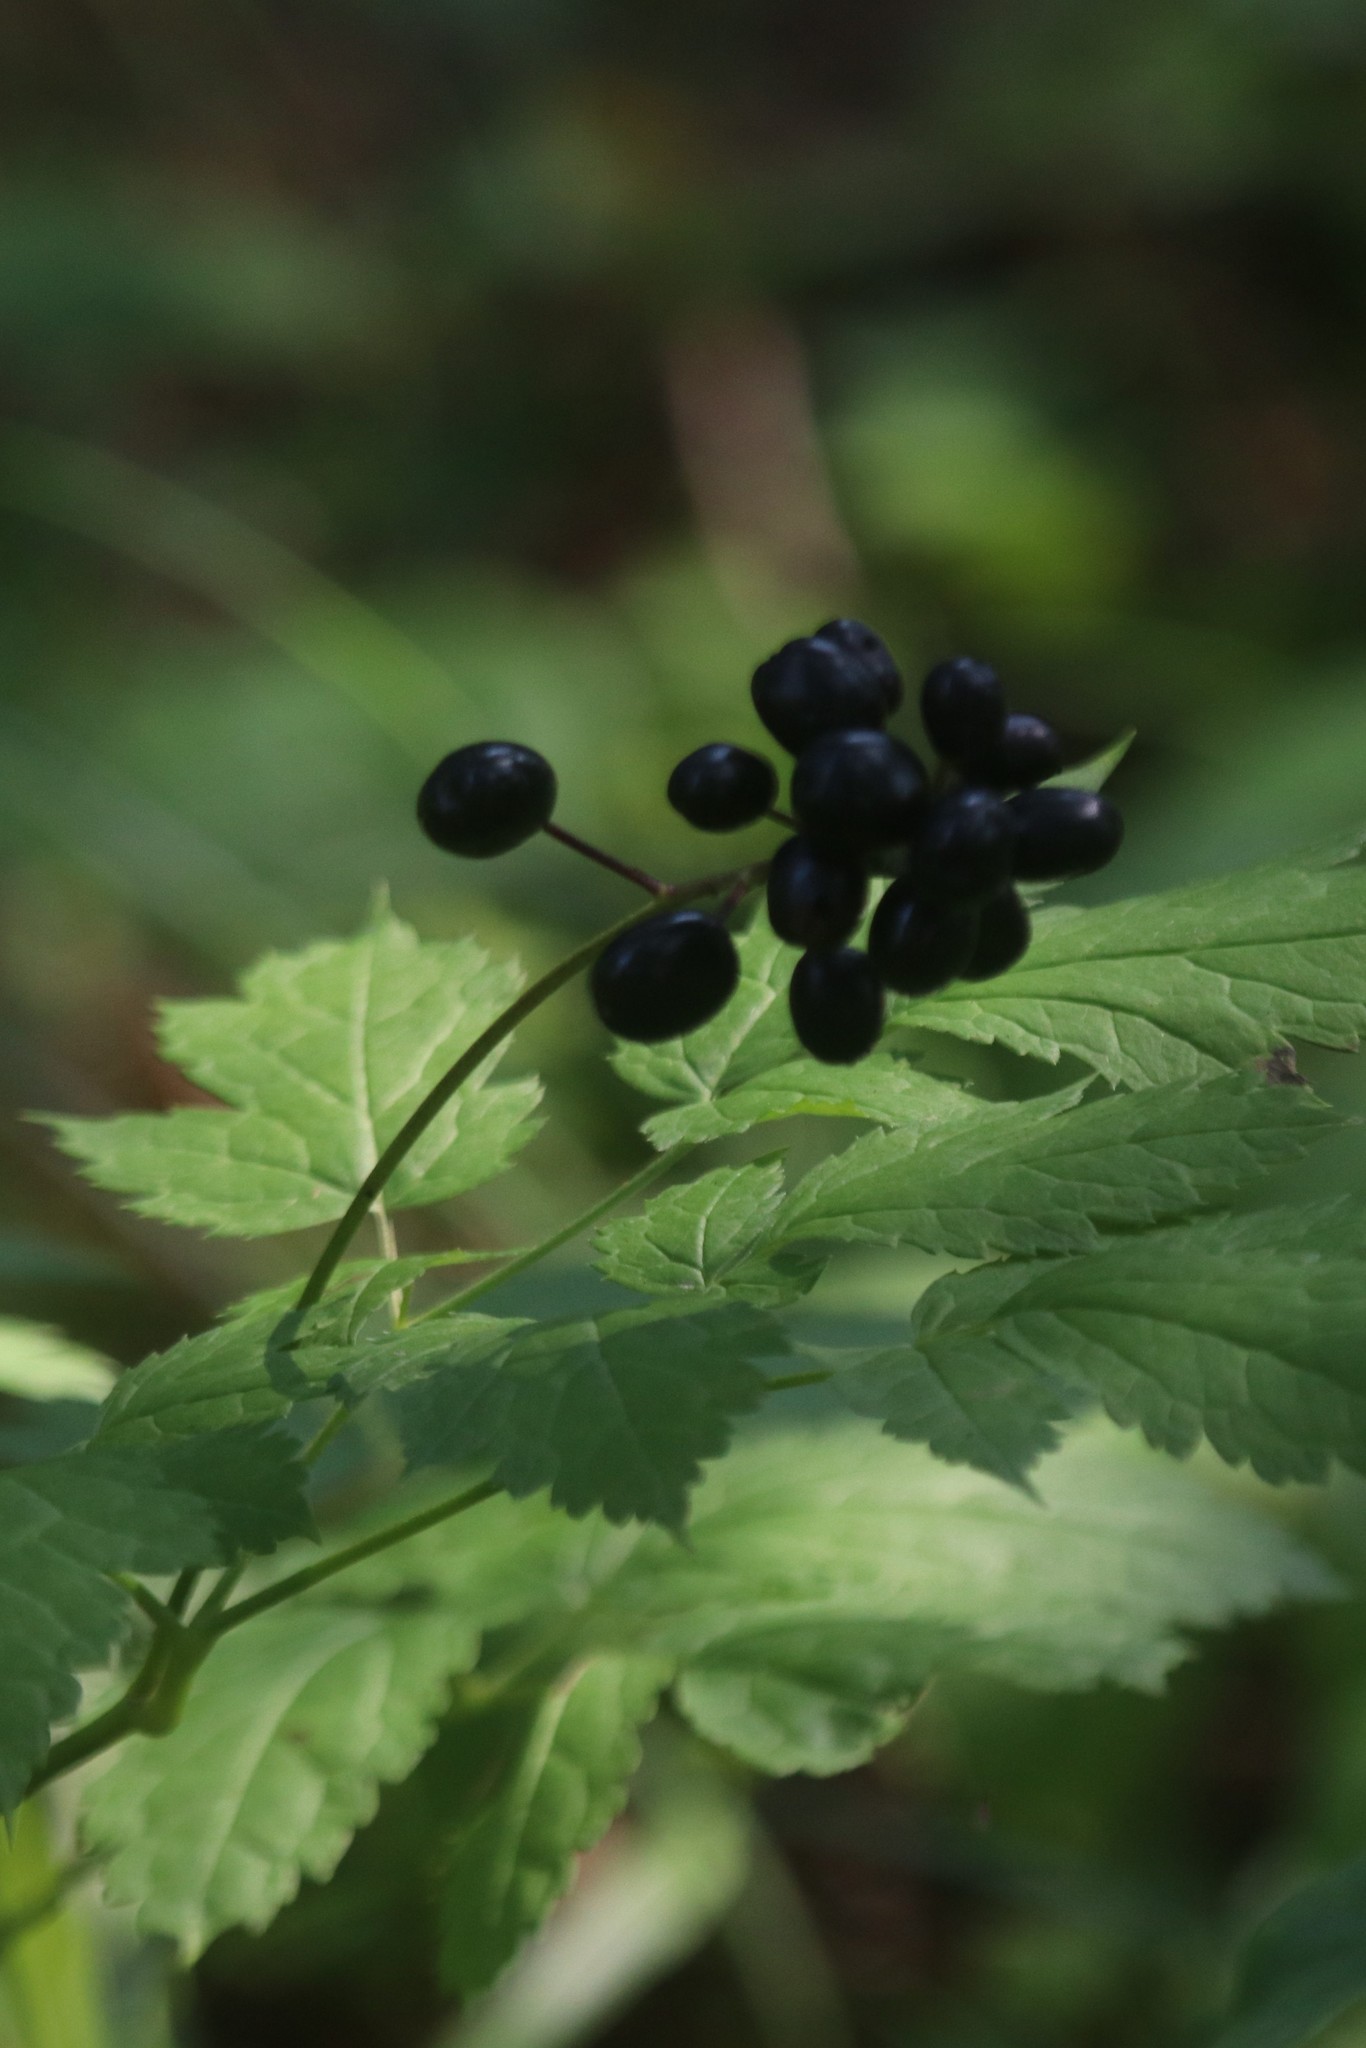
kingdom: Plantae
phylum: Tracheophyta
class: Magnoliopsida
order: Ranunculales
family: Ranunculaceae
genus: Actaea
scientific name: Actaea spicata
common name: Baneberry
